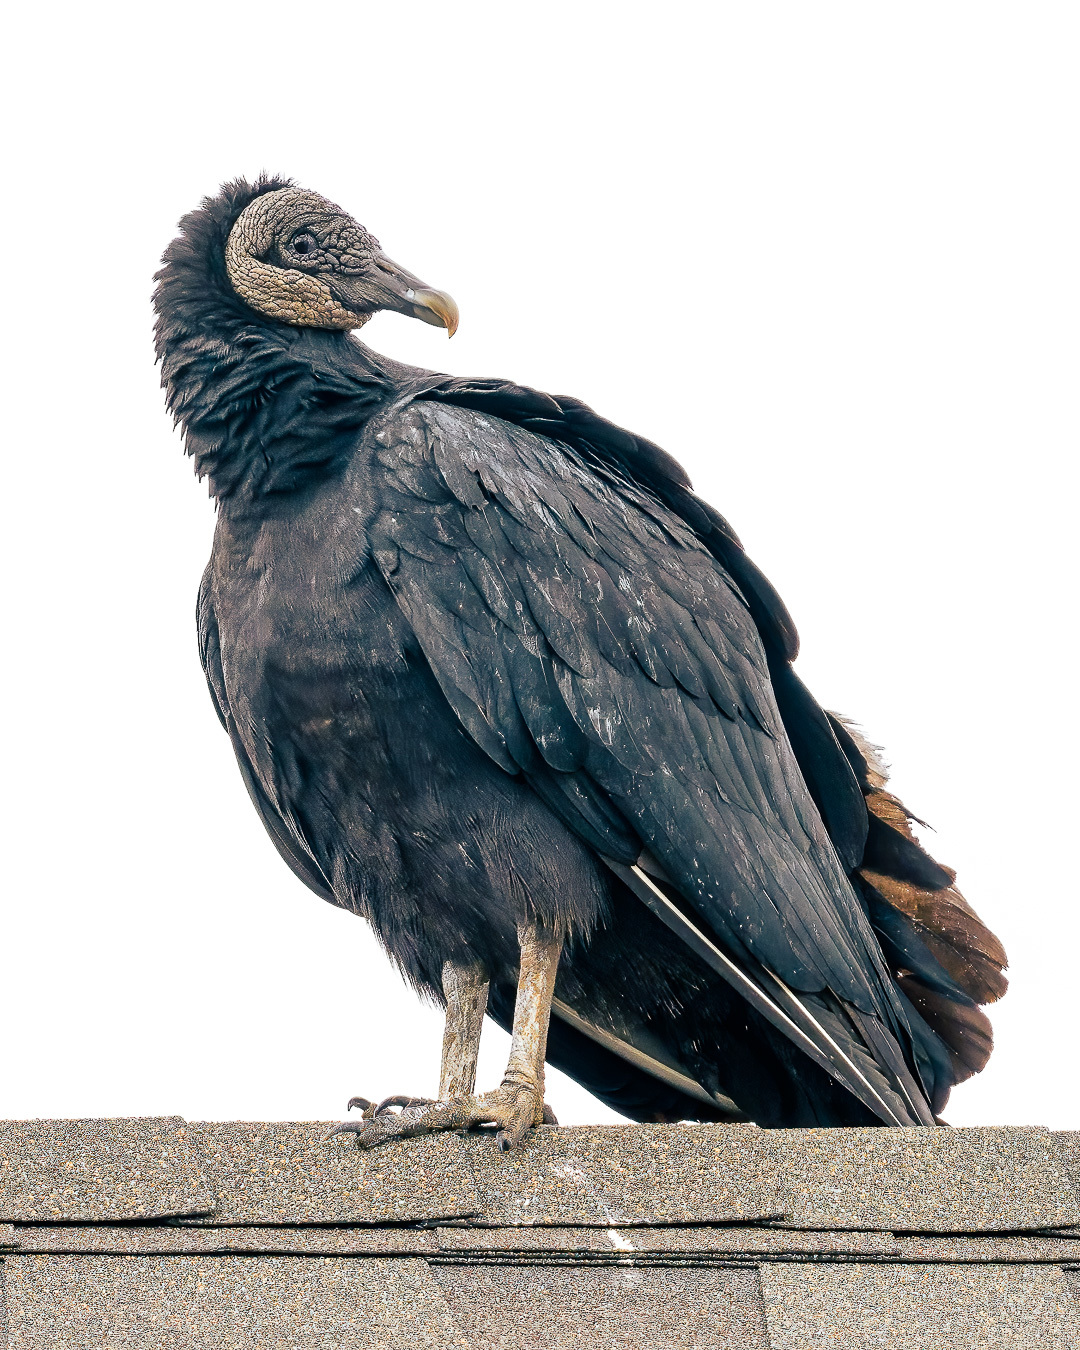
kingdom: Animalia
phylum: Chordata
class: Aves
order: Accipitriformes
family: Cathartidae
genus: Coragyps
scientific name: Coragyps atratus
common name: Black vulture
